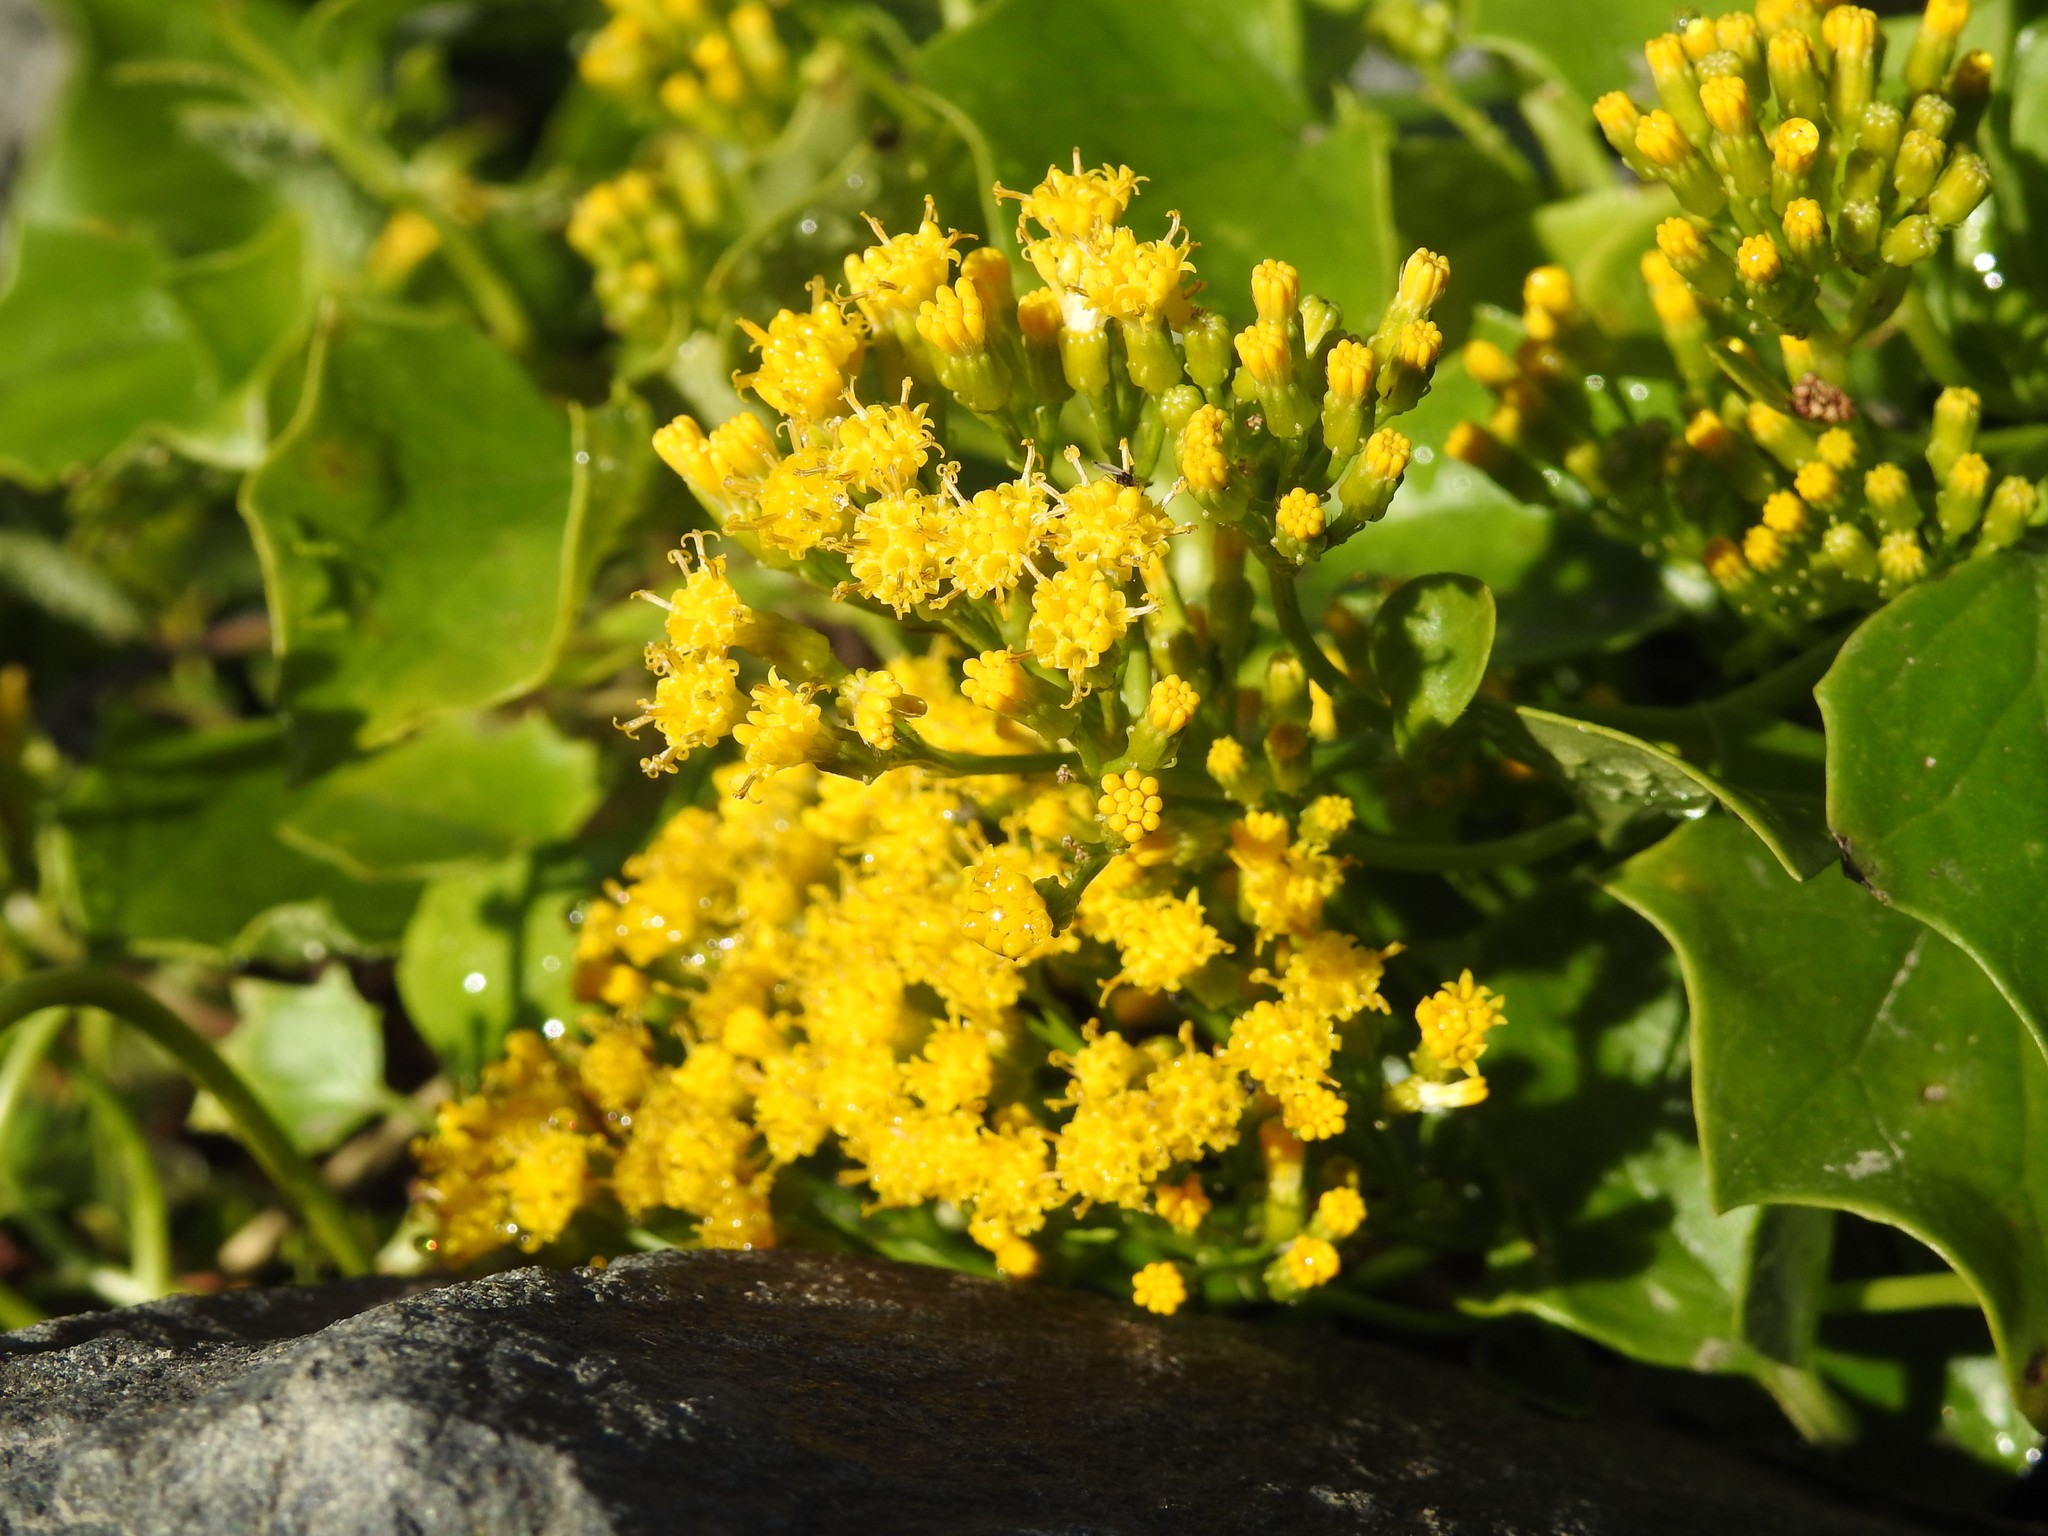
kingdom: Plantae
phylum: Tracheophyta
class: Magnoliopsida
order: Asterales
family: Asteraceae
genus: Delairea
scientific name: Delairea odorata
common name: Cape-ivy
